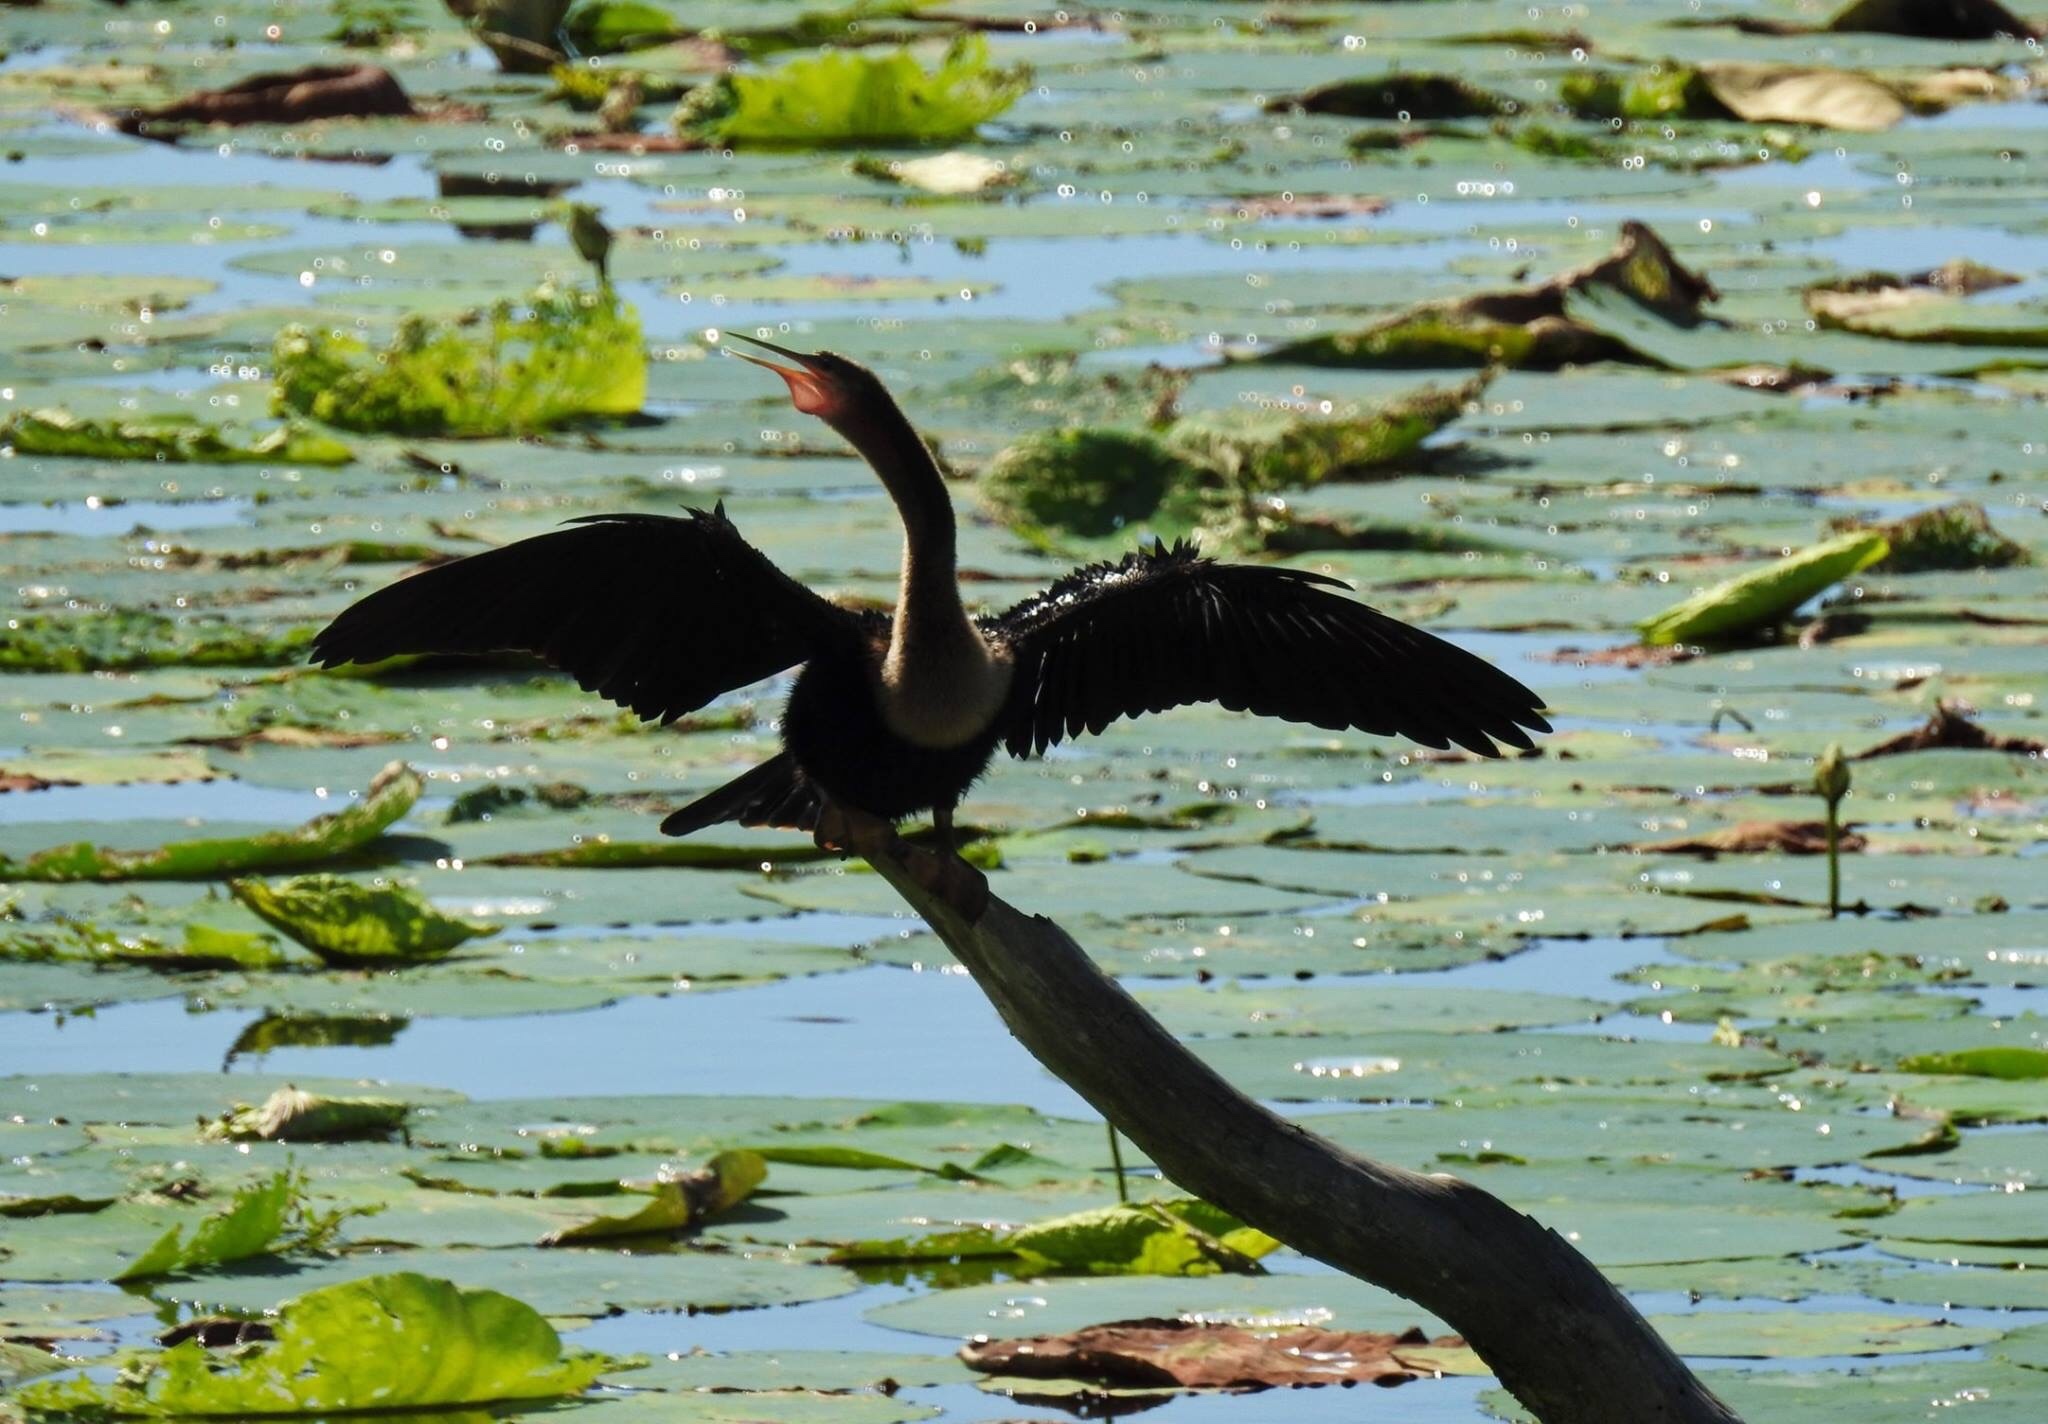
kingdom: Animalia
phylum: Chordata
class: Aves
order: Suliformes
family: Anhingidae
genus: Anhinga
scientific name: Anhinga anhinga
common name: Anhinga
